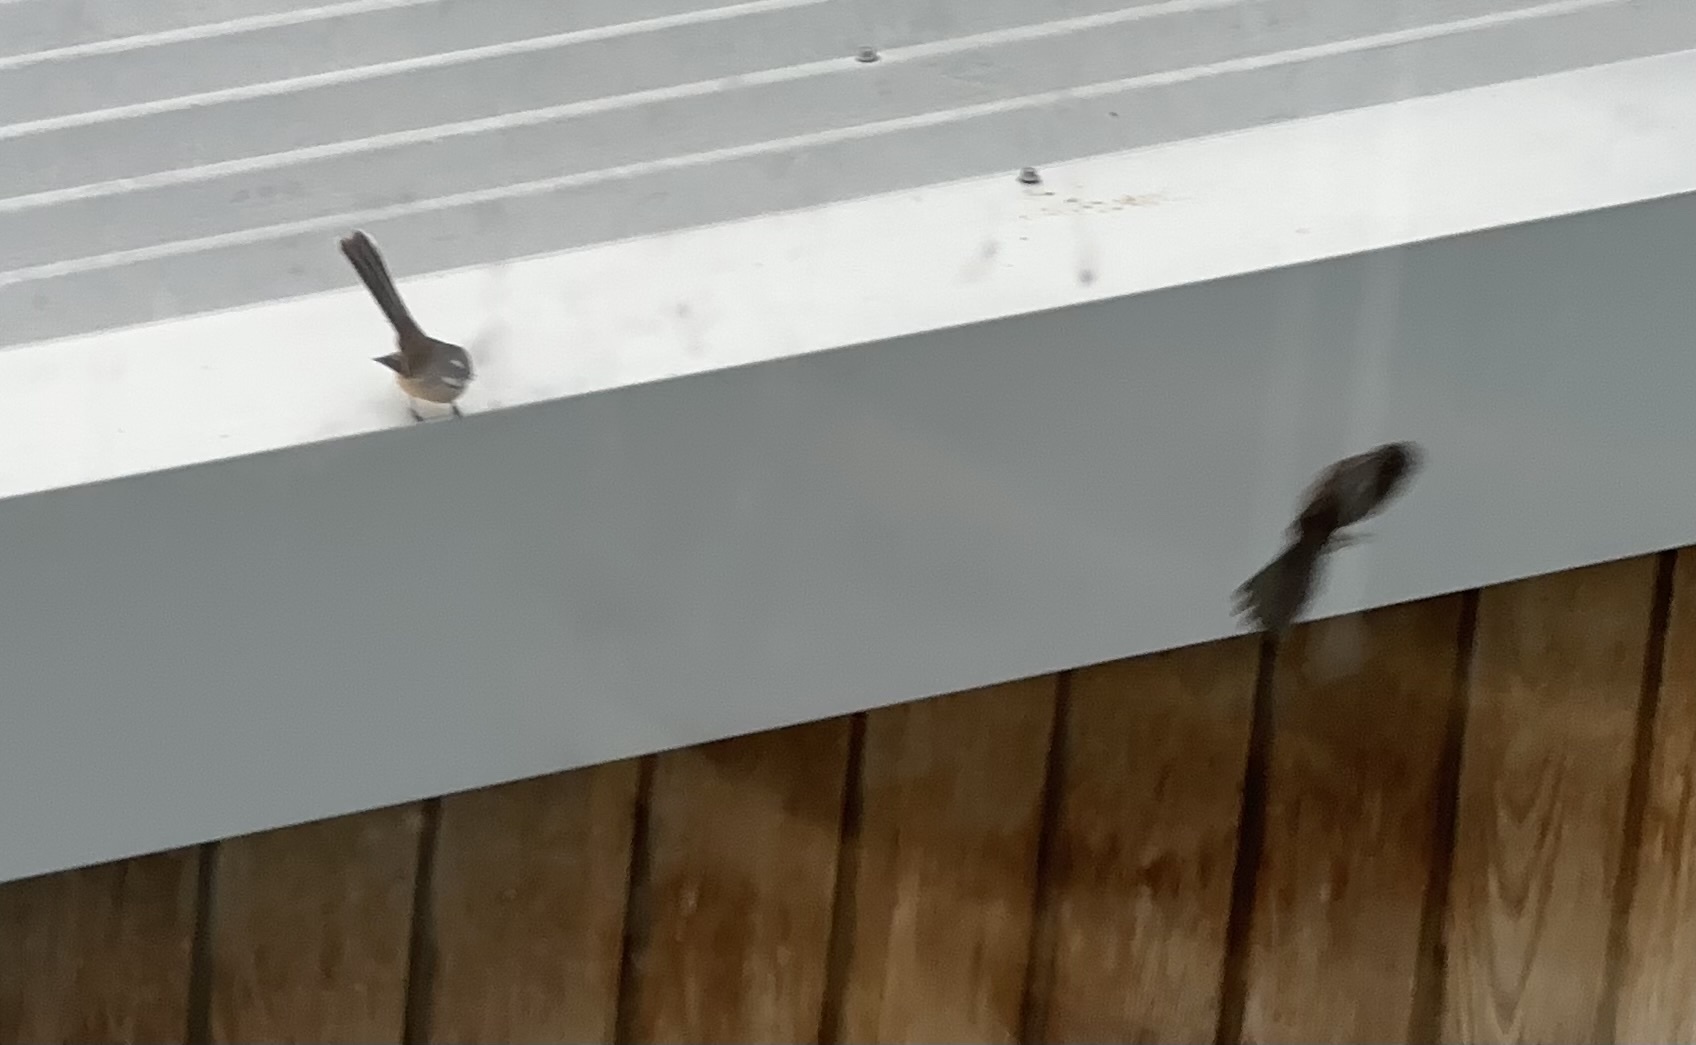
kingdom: Animalia
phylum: Chordata
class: Aves
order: Passeriformes
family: Rhipiduridae
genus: Rhipidura
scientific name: Rhipidura fuliginosa
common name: New zealand fantail
